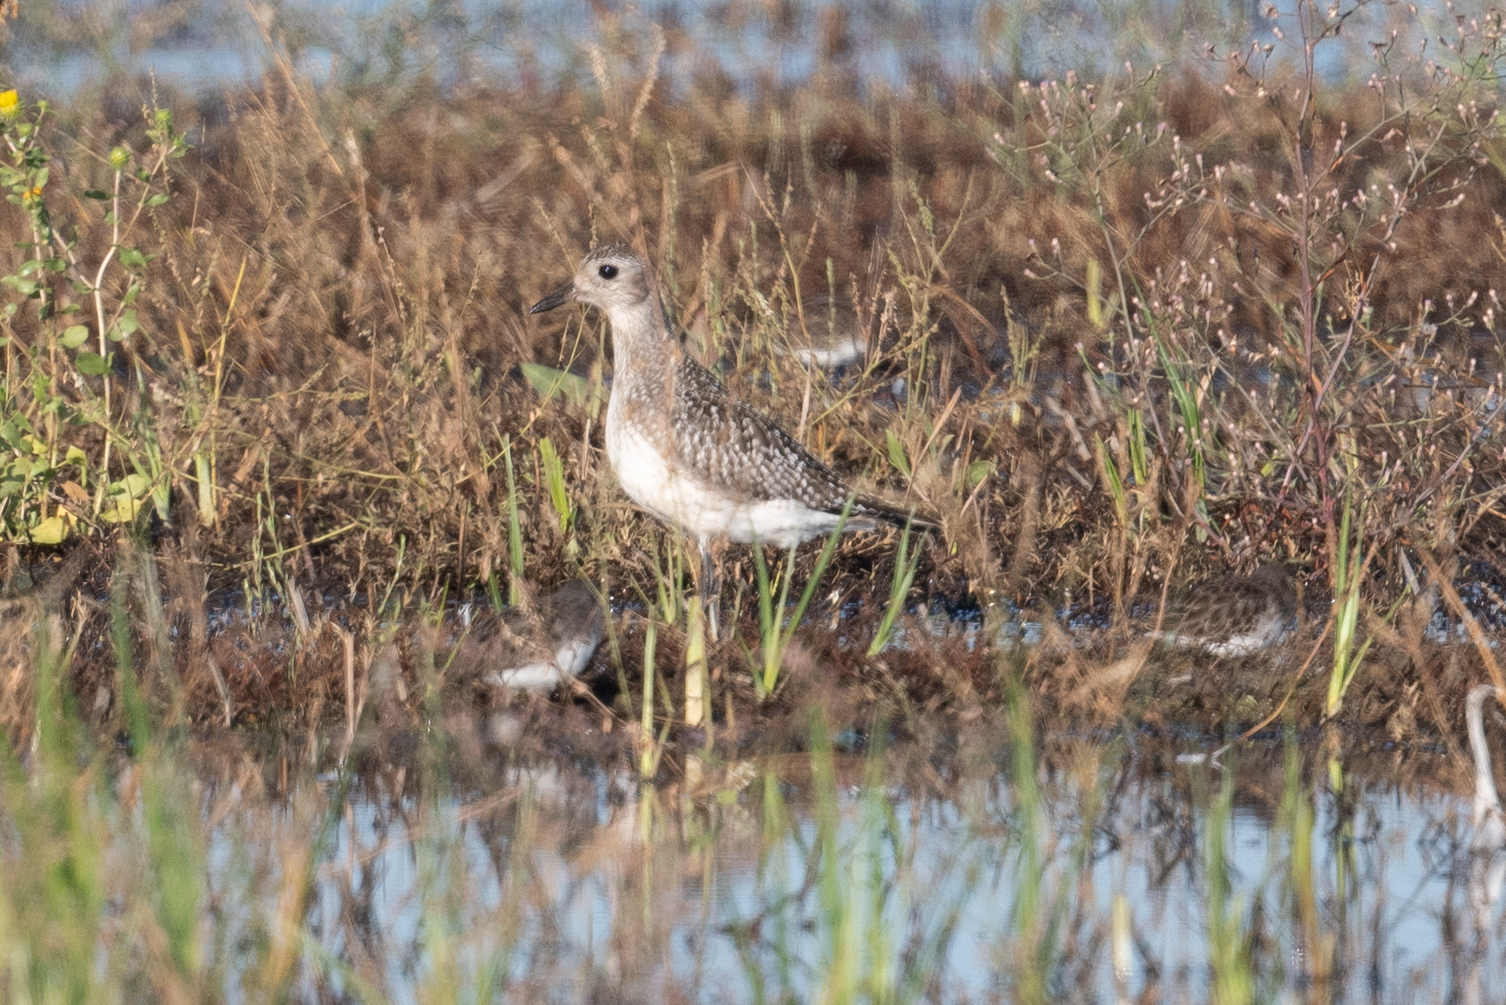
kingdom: Animalia
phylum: Chordata
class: Aves
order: Charadriiformes
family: Charadriidae
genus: Pluvialis
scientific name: Pluvialis squatarola
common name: Grey plover
